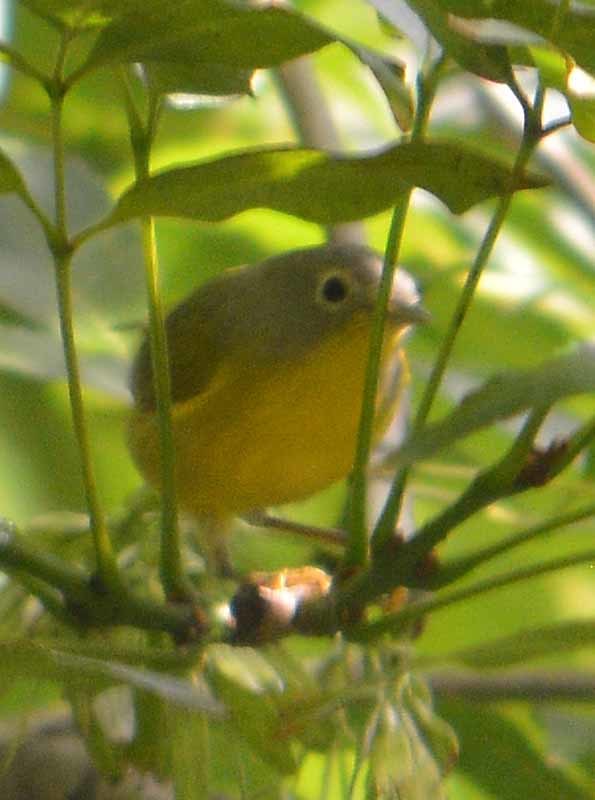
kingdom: Animalia
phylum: Chordata
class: Aves
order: Passeriformes
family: Parulidae
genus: Leiothlypis
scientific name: Leiothlypis ruficapilla
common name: Nashville warbler
